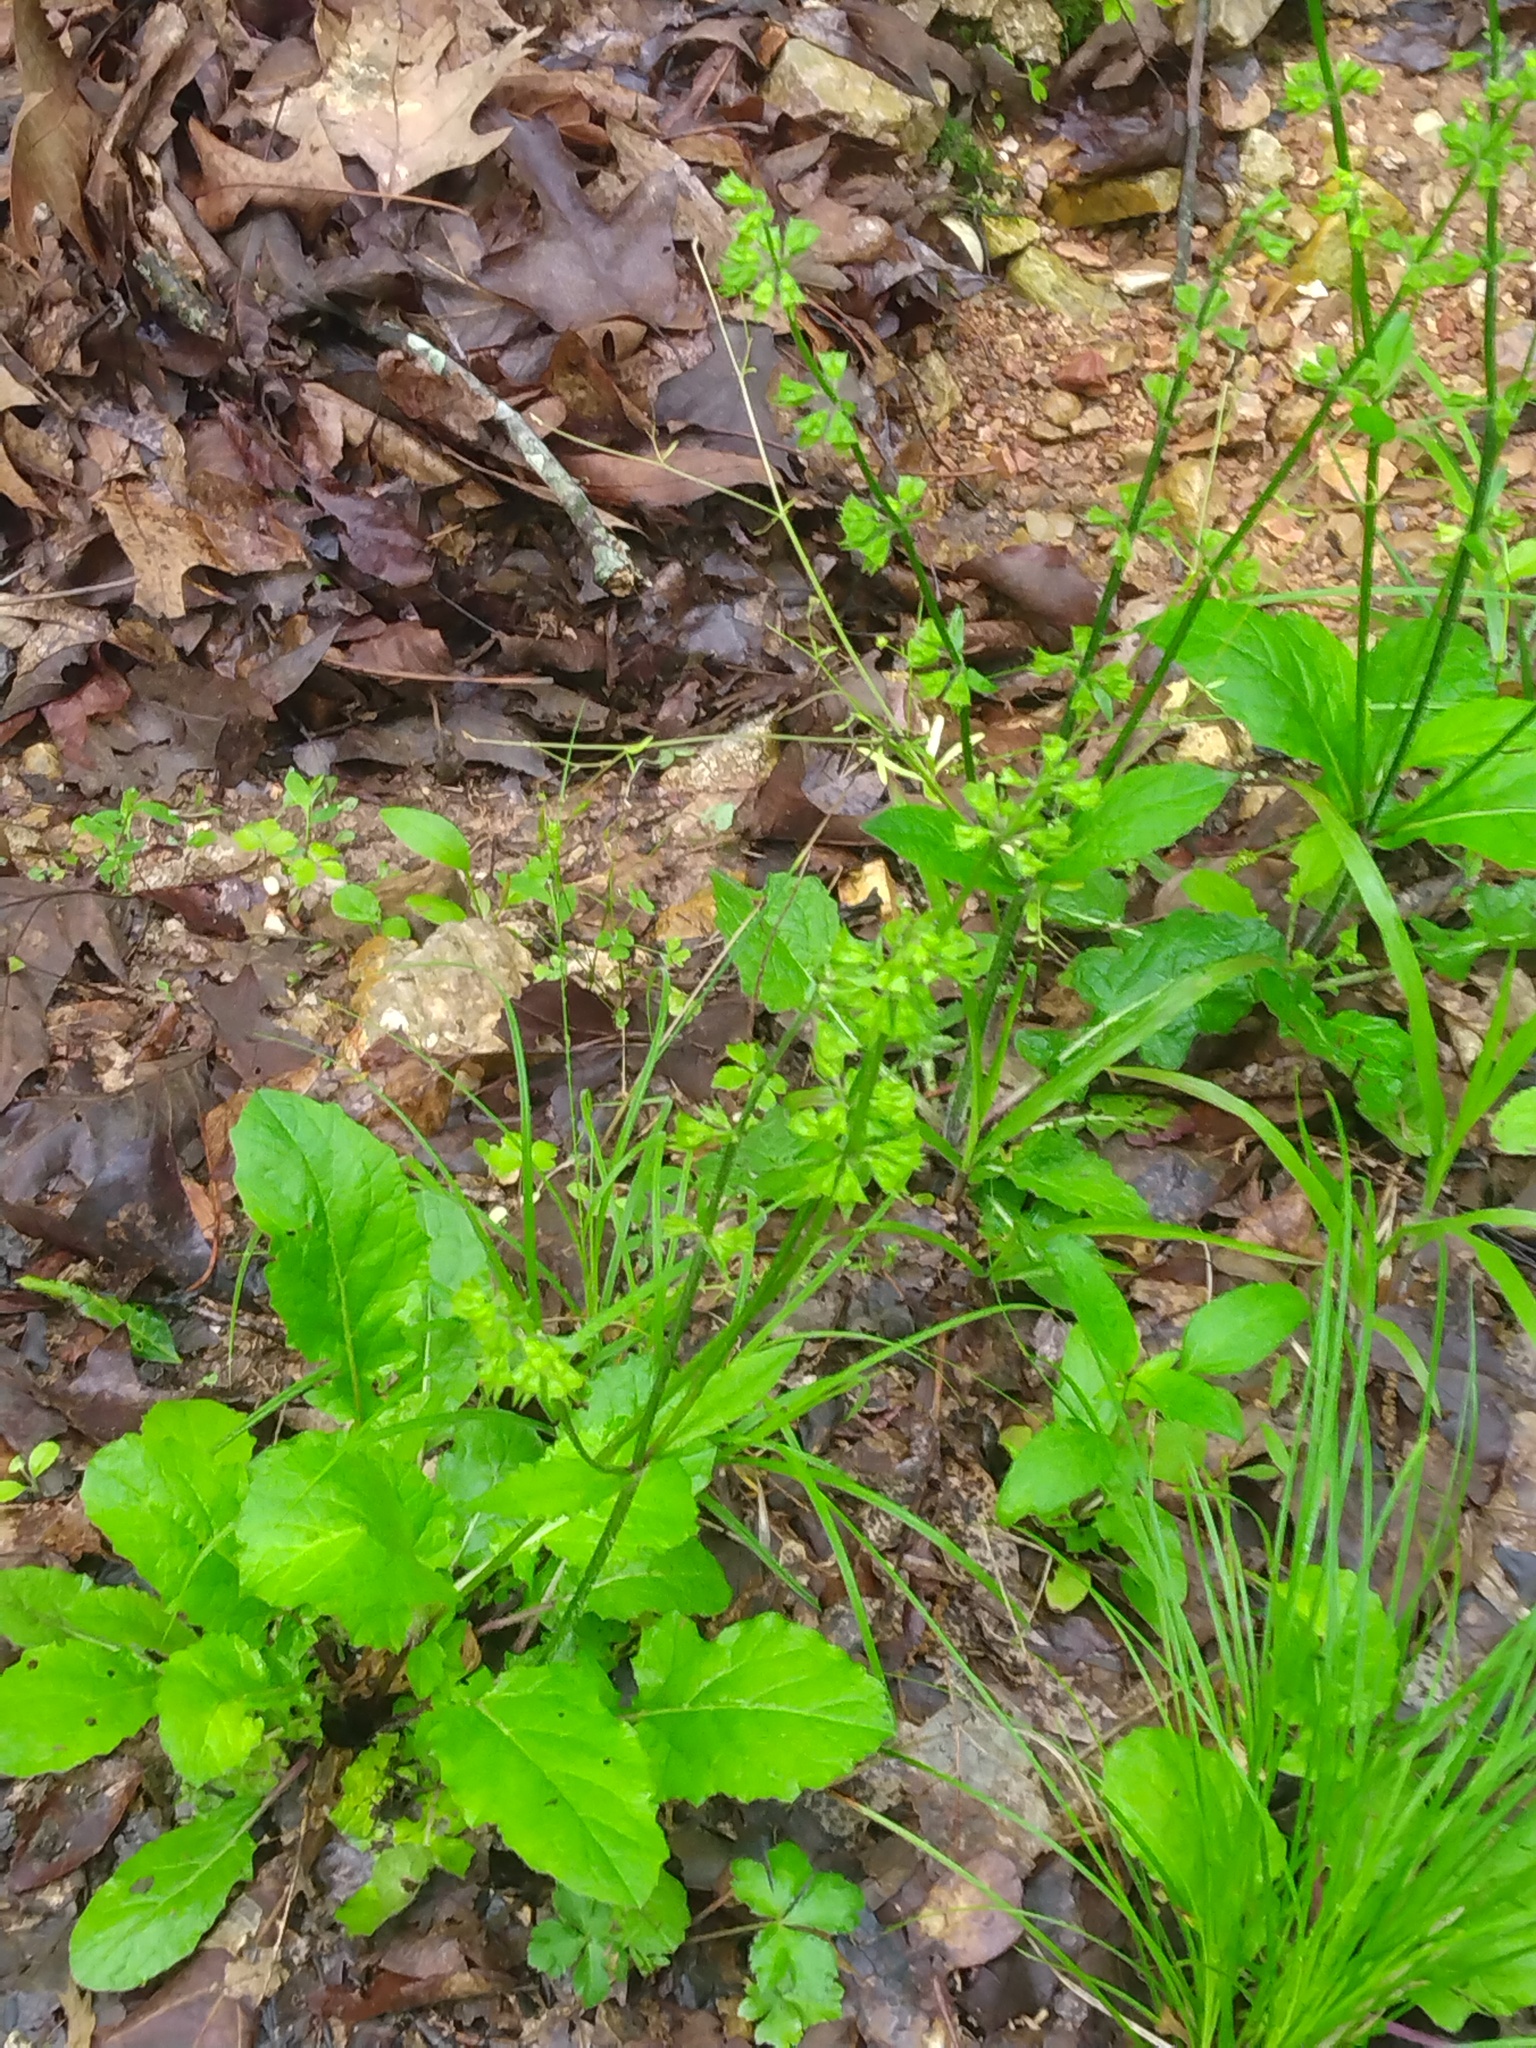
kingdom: Plantae
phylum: Tracheophyta
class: Magnoliopsida
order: Lamiales
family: Lamiaceae
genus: Salvia
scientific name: Salvia lyrata
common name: Cancerweed
